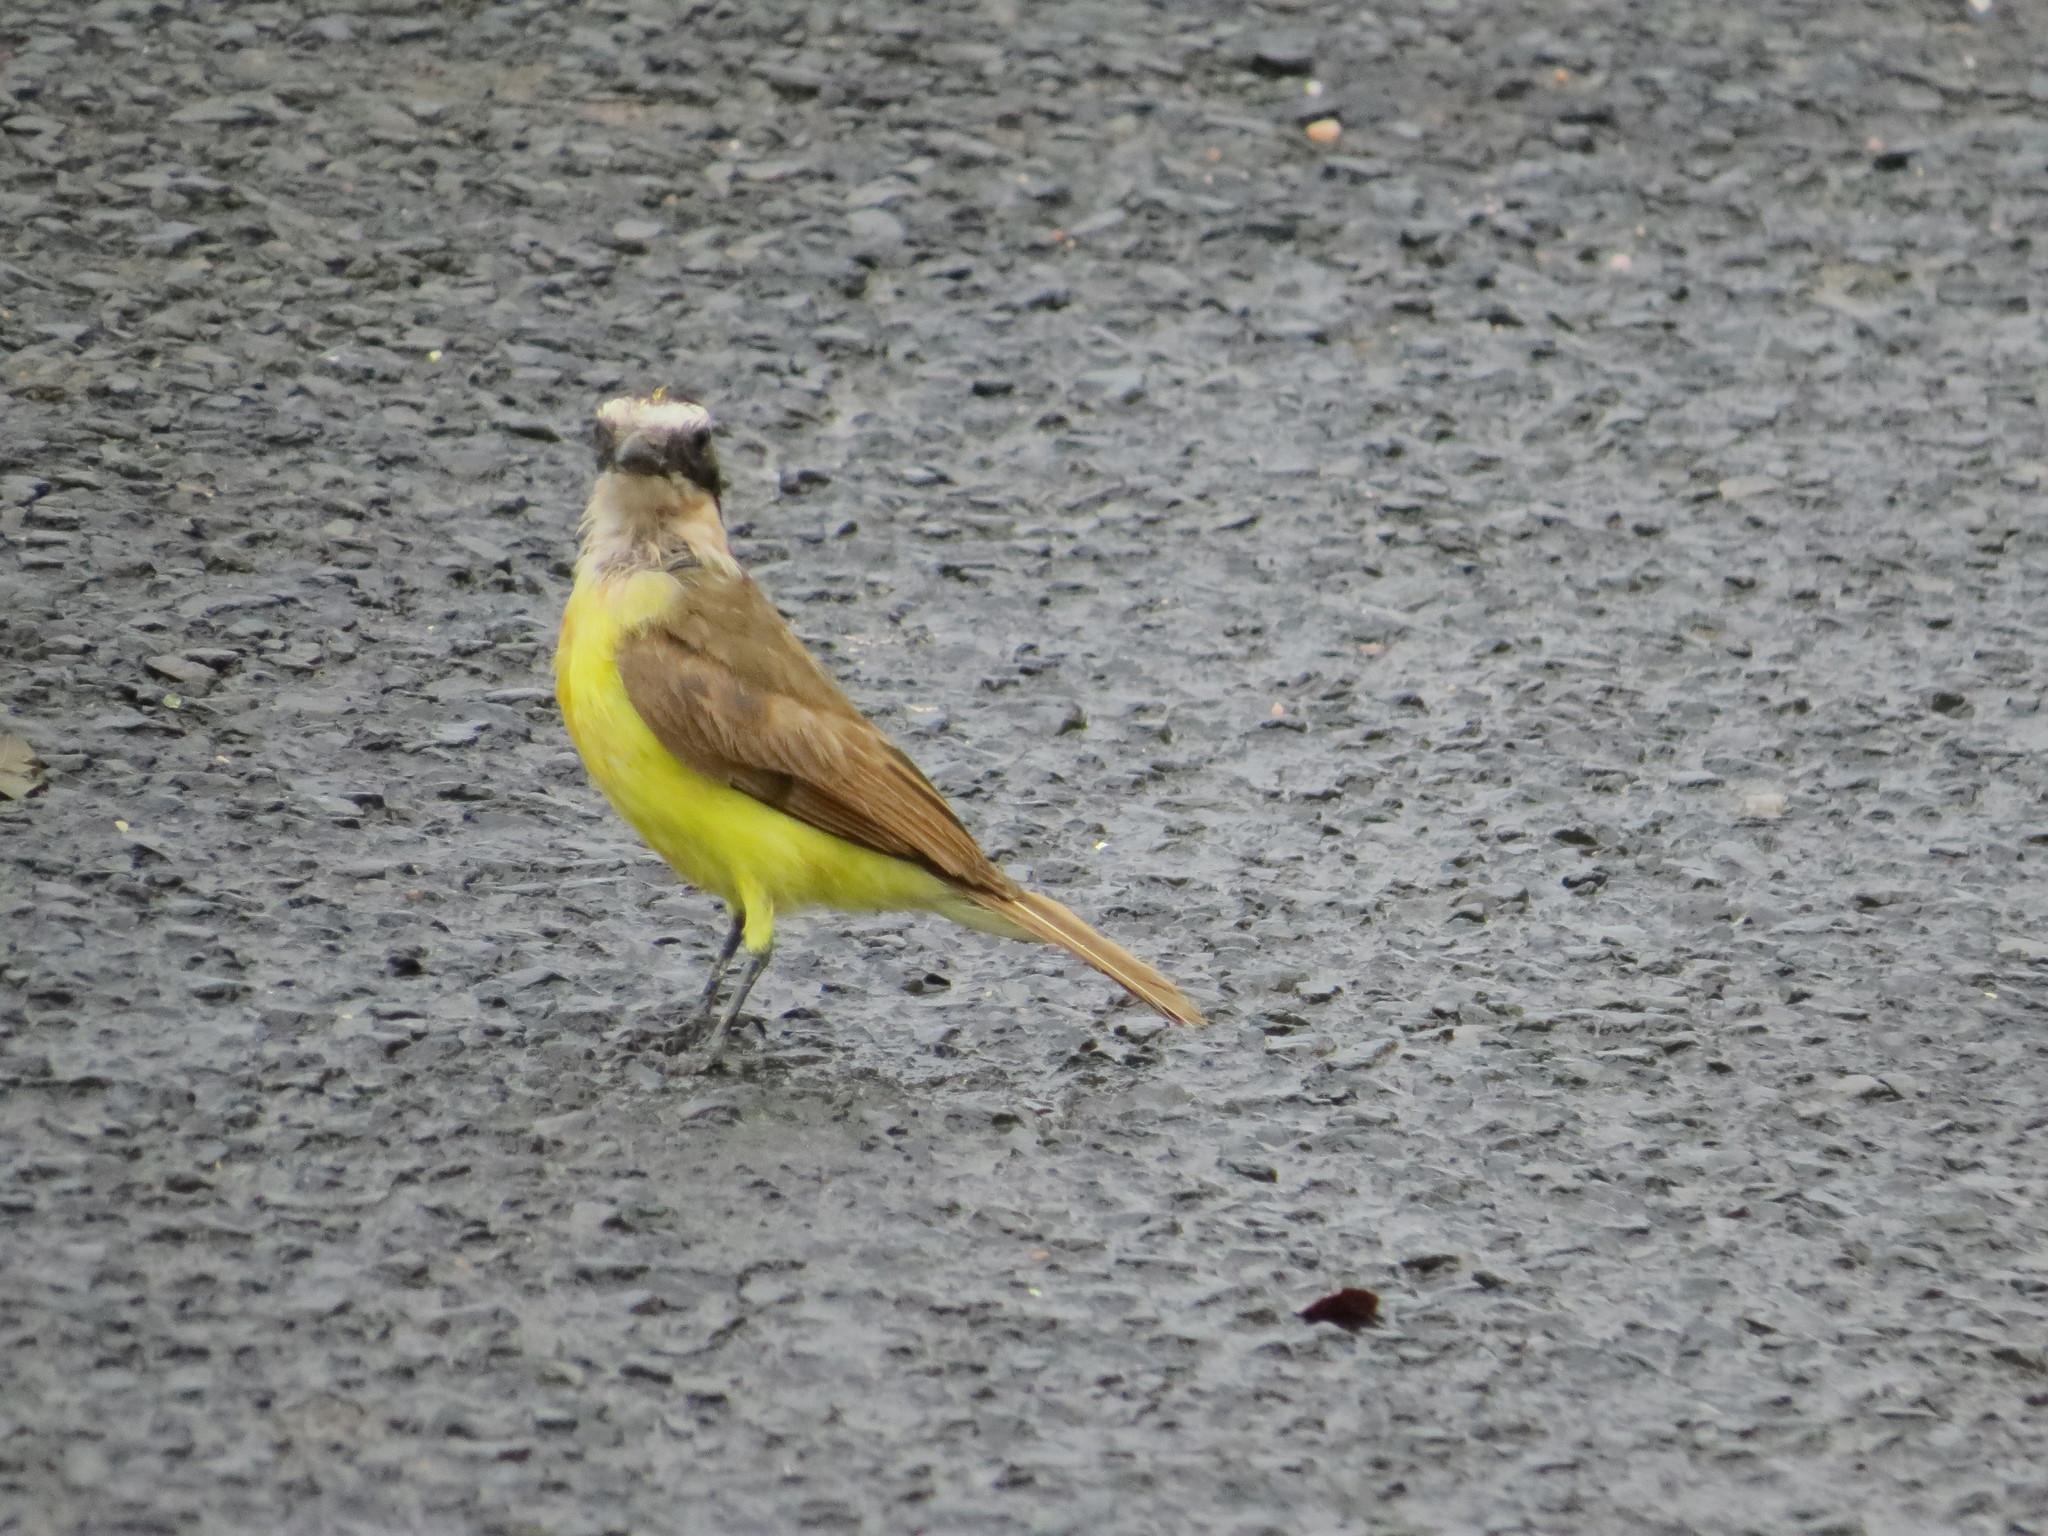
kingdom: Animalia
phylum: Chordata
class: Aves
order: Passeriformes
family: Tyrannidae
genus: Pitangus
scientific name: Pitangus sulphuratus
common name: Great kiskadee
